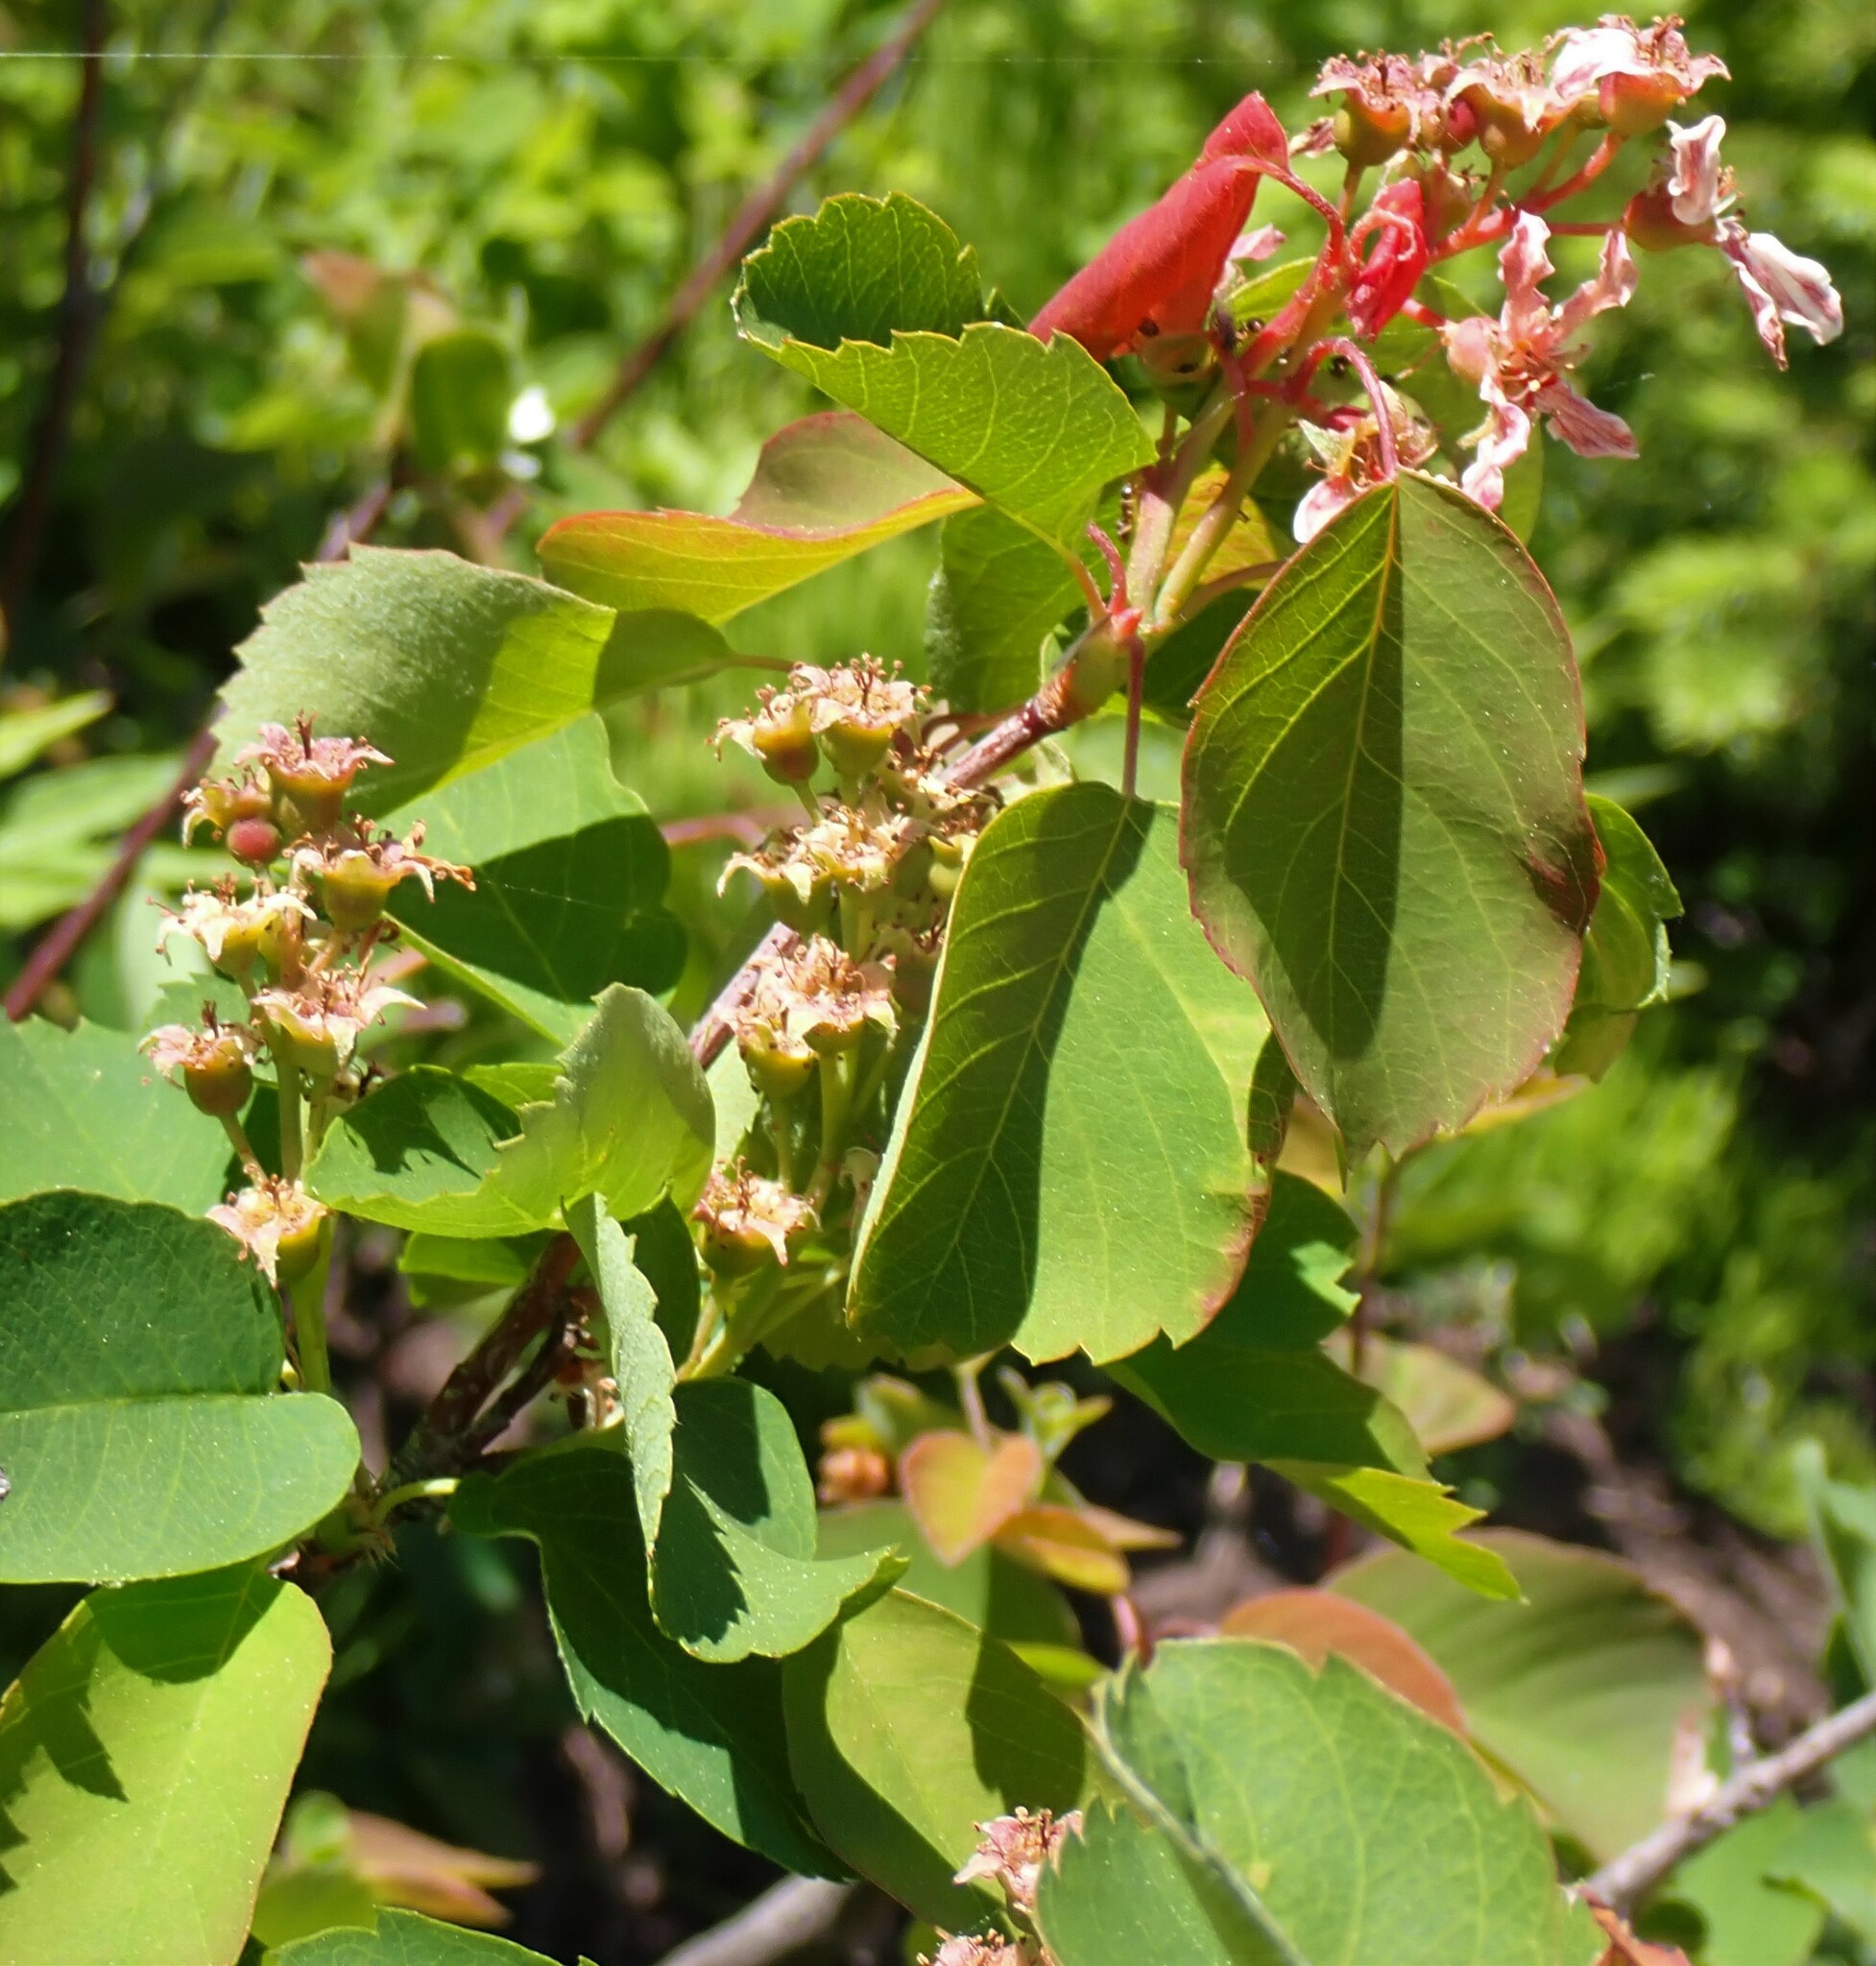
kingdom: Plantae
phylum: Tracheophyta
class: Magnoliopsida
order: Rosales
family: Rosaceae
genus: Amelanchier
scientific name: Amelanchier alnifolia
